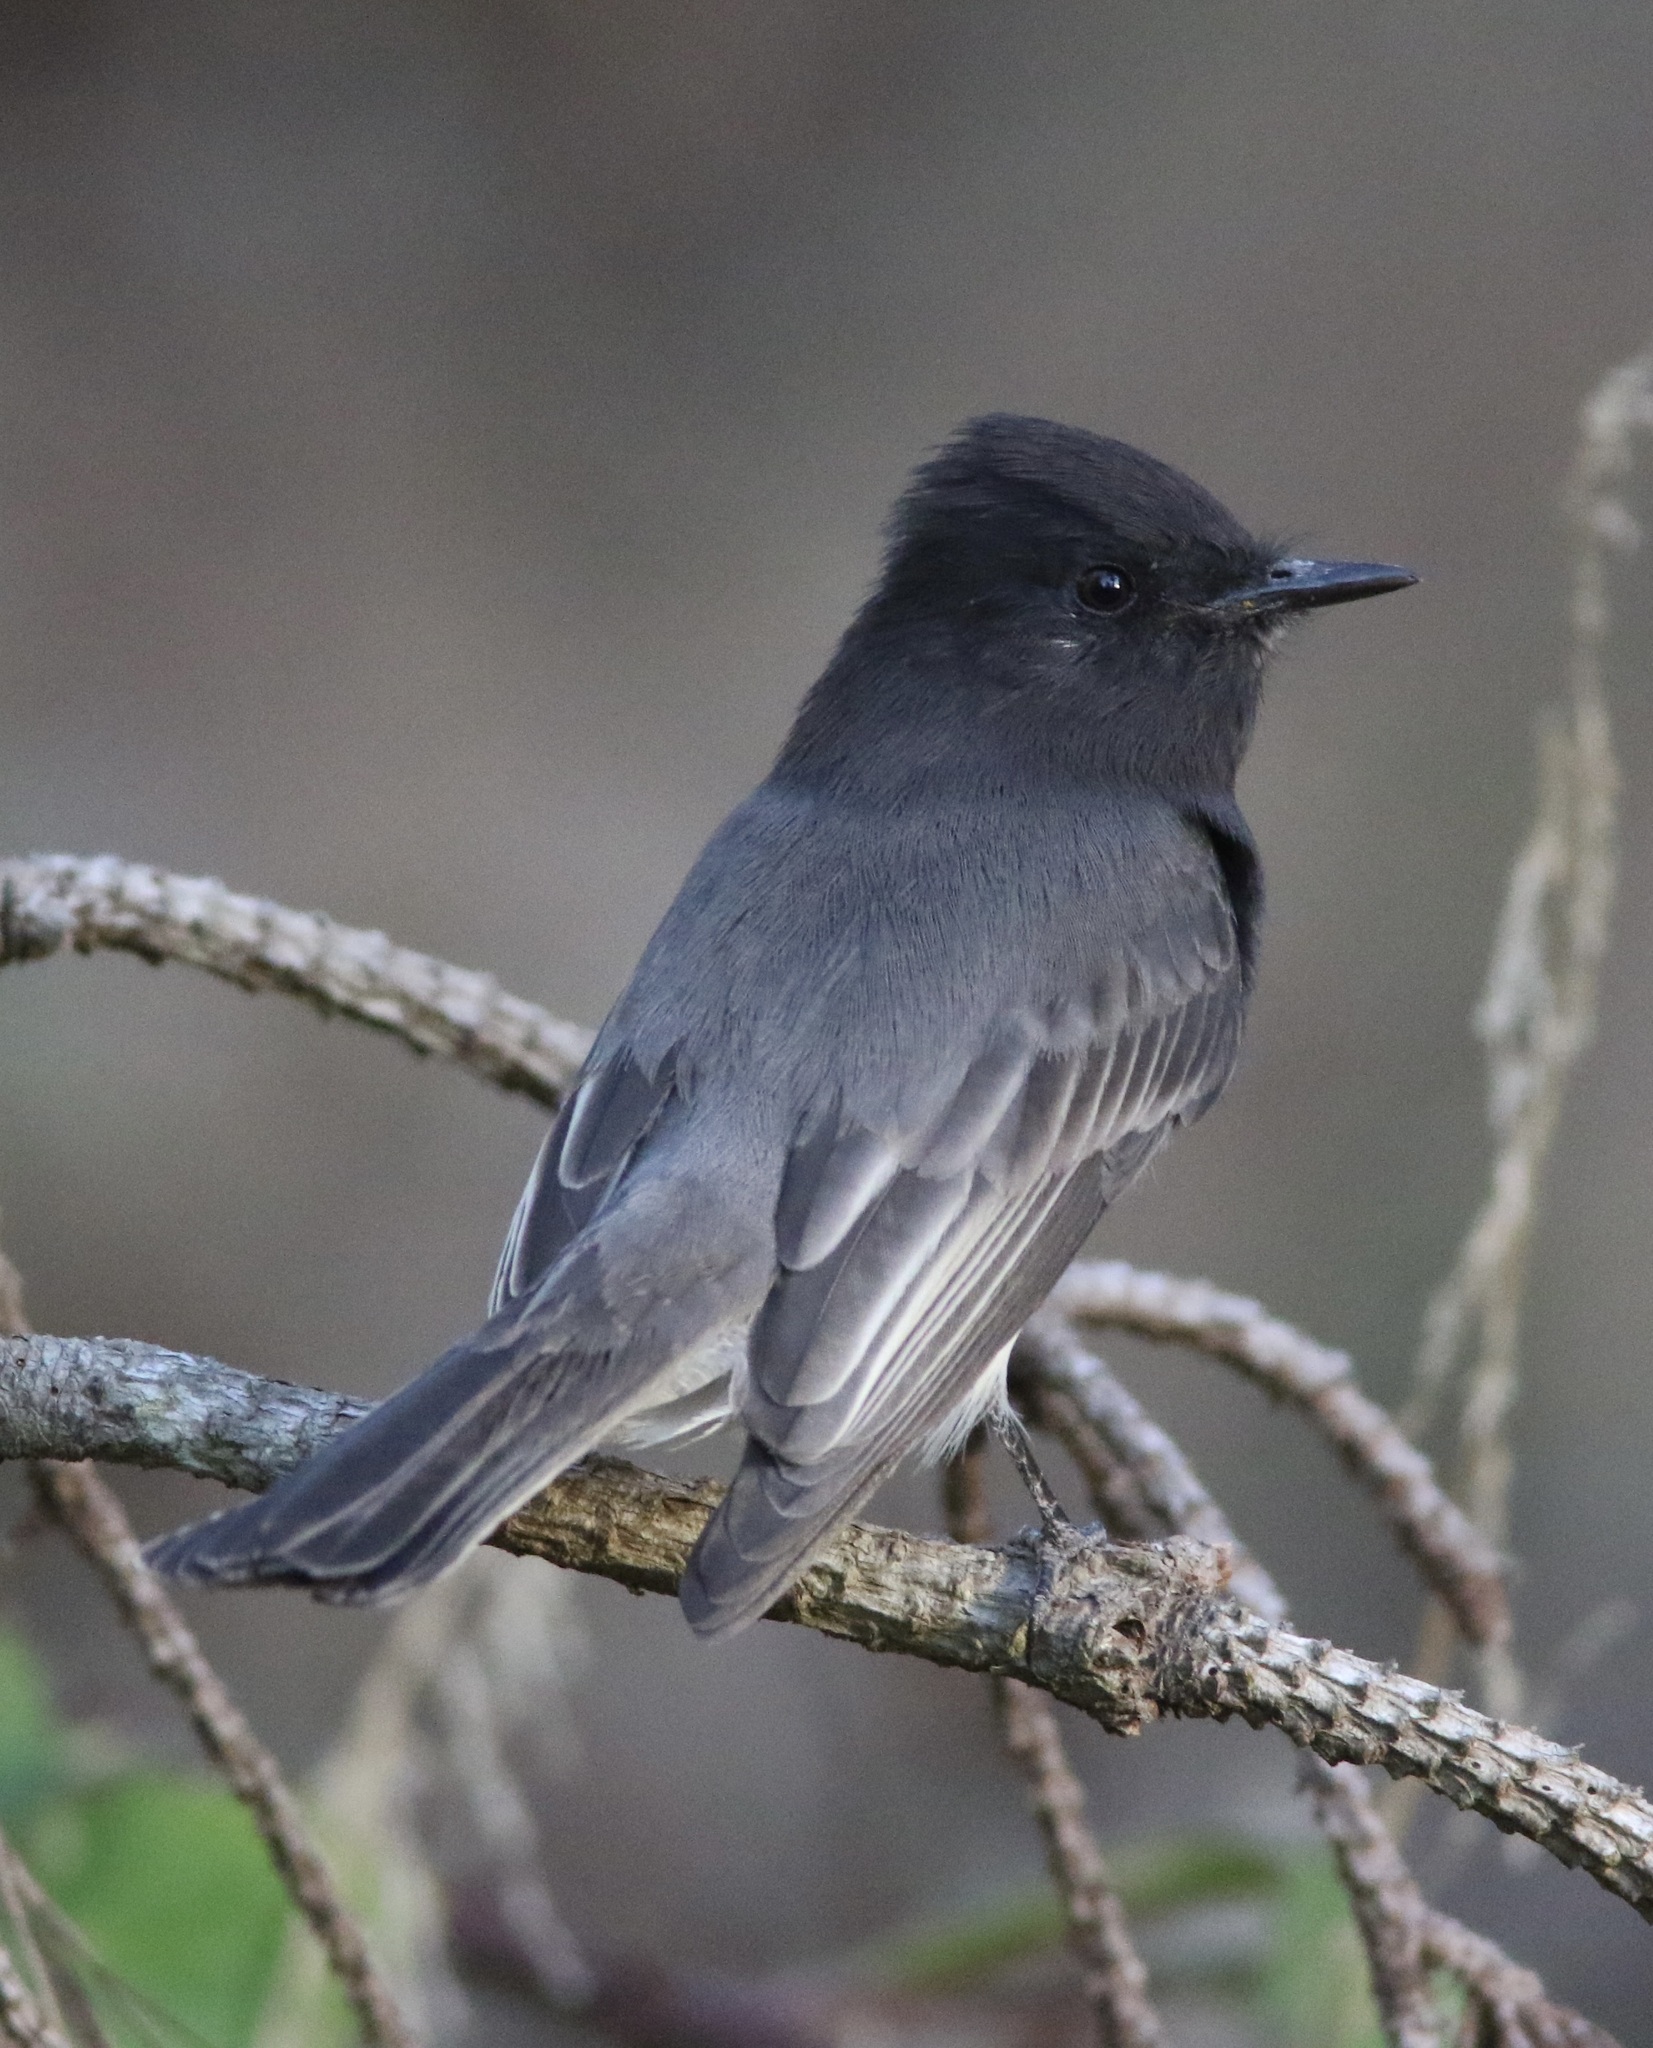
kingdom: Animalia
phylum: Chordata
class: Aves
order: Passeriformes
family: Tyrannidae
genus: Sayornis
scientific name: Sayornis nigricans
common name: Black phoebe
